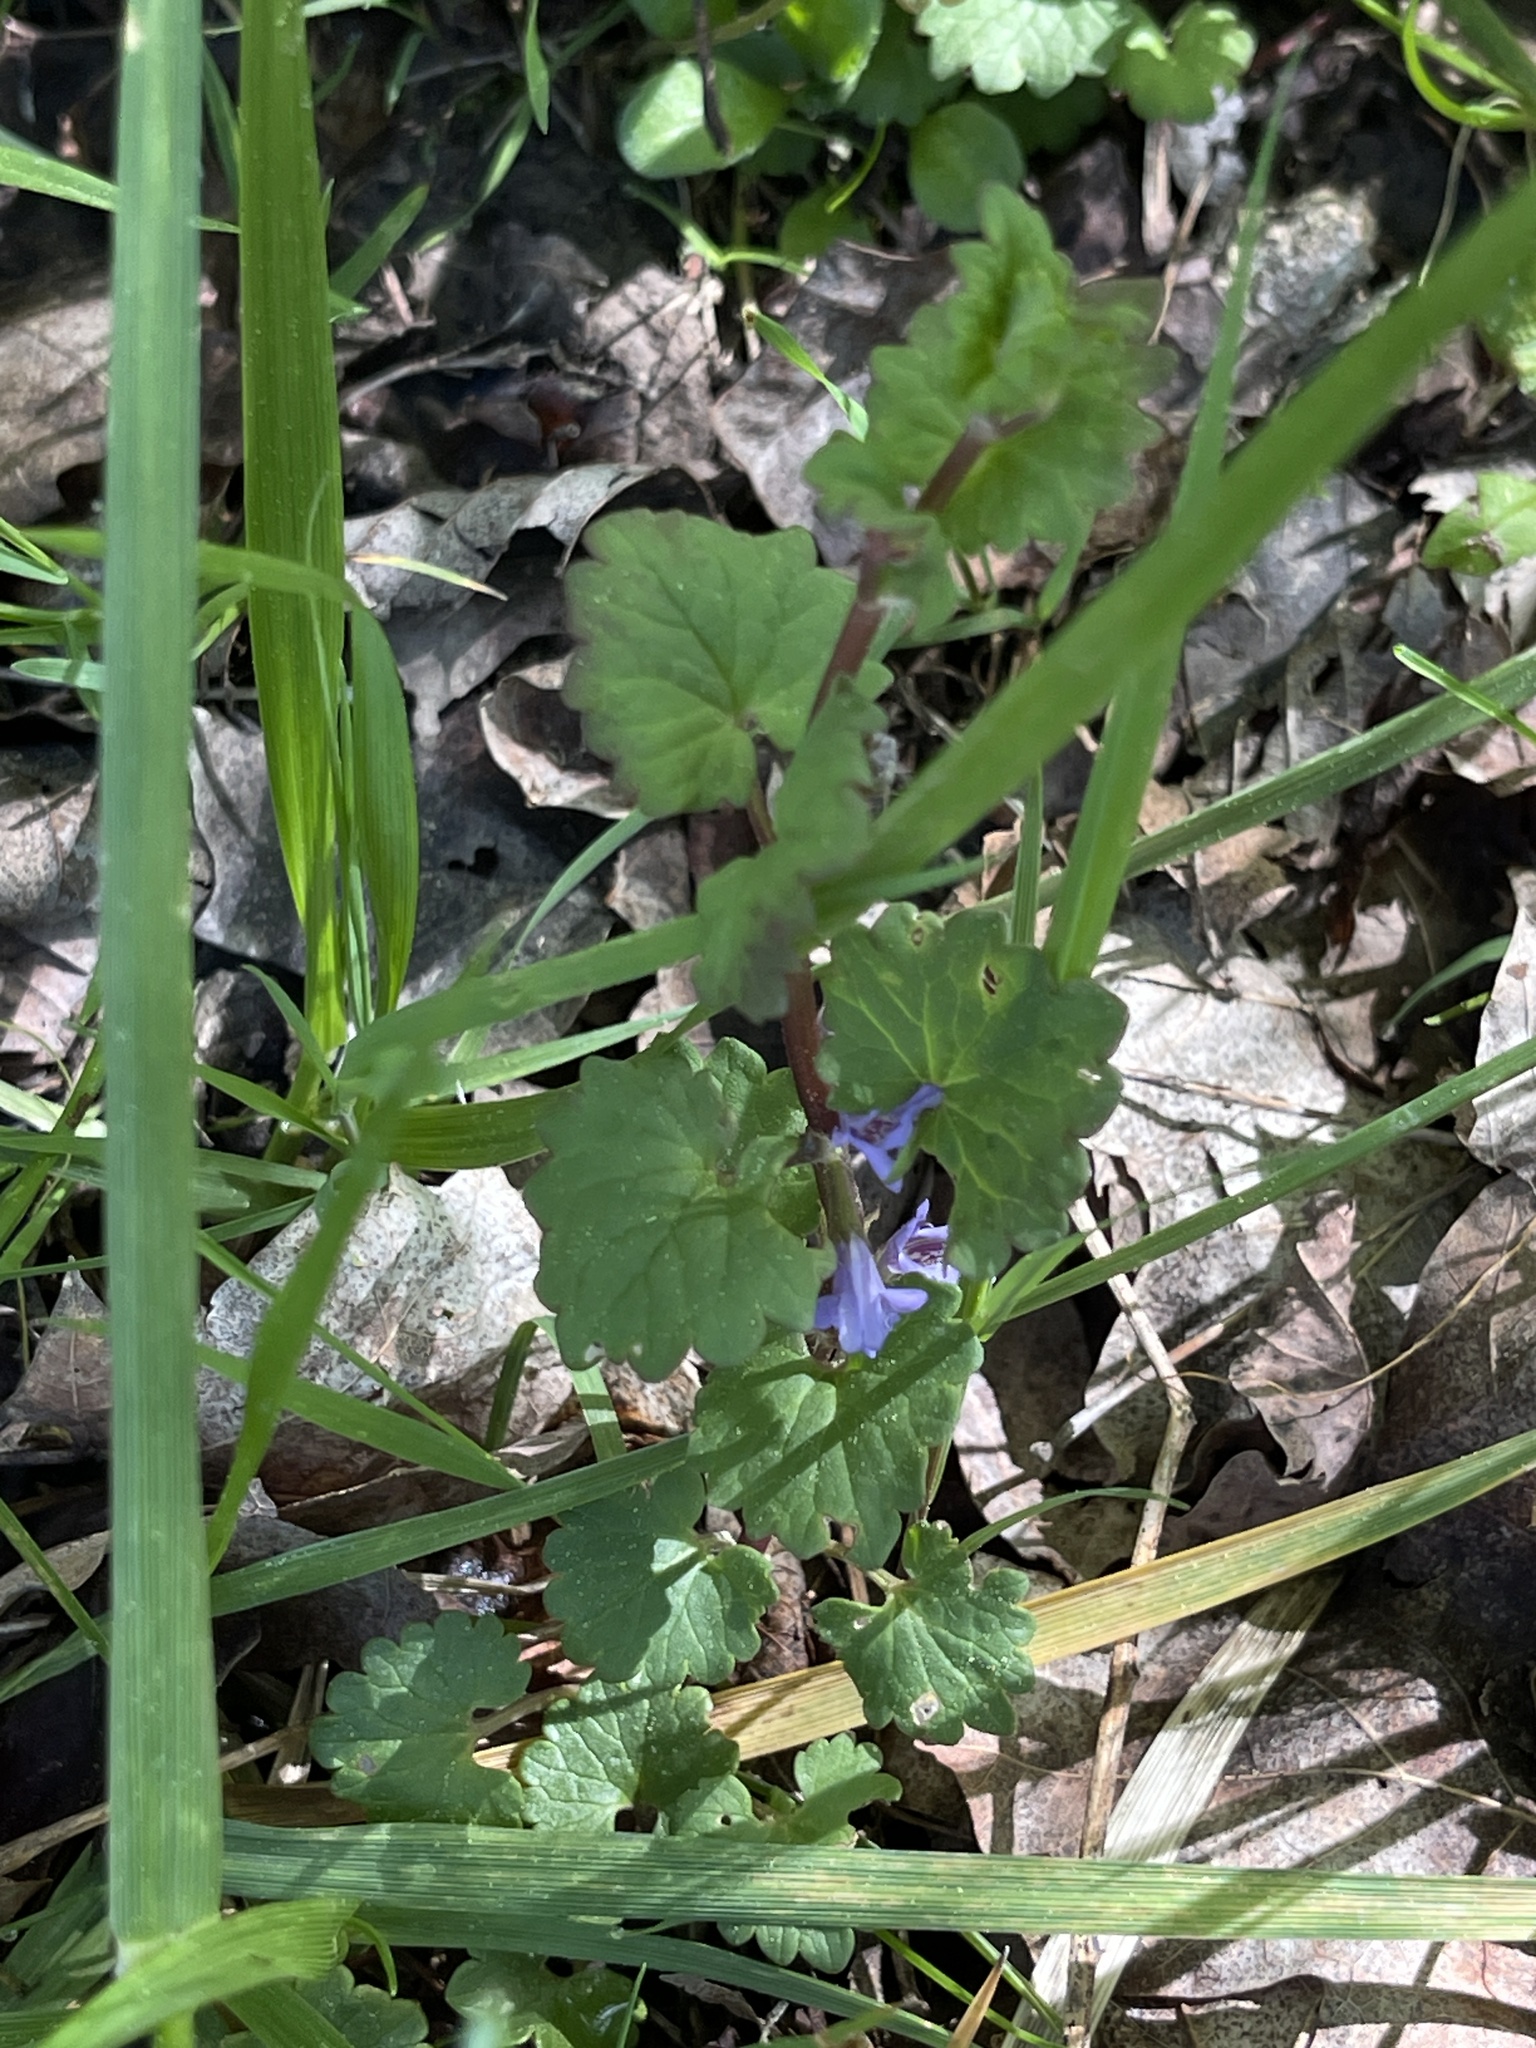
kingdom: Plantae
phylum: Tracheophyta
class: Magnoliopsida
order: Lamiales
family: Lamiaceae
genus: Glechoma
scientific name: Glechoma hederacea
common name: Ground ivy
